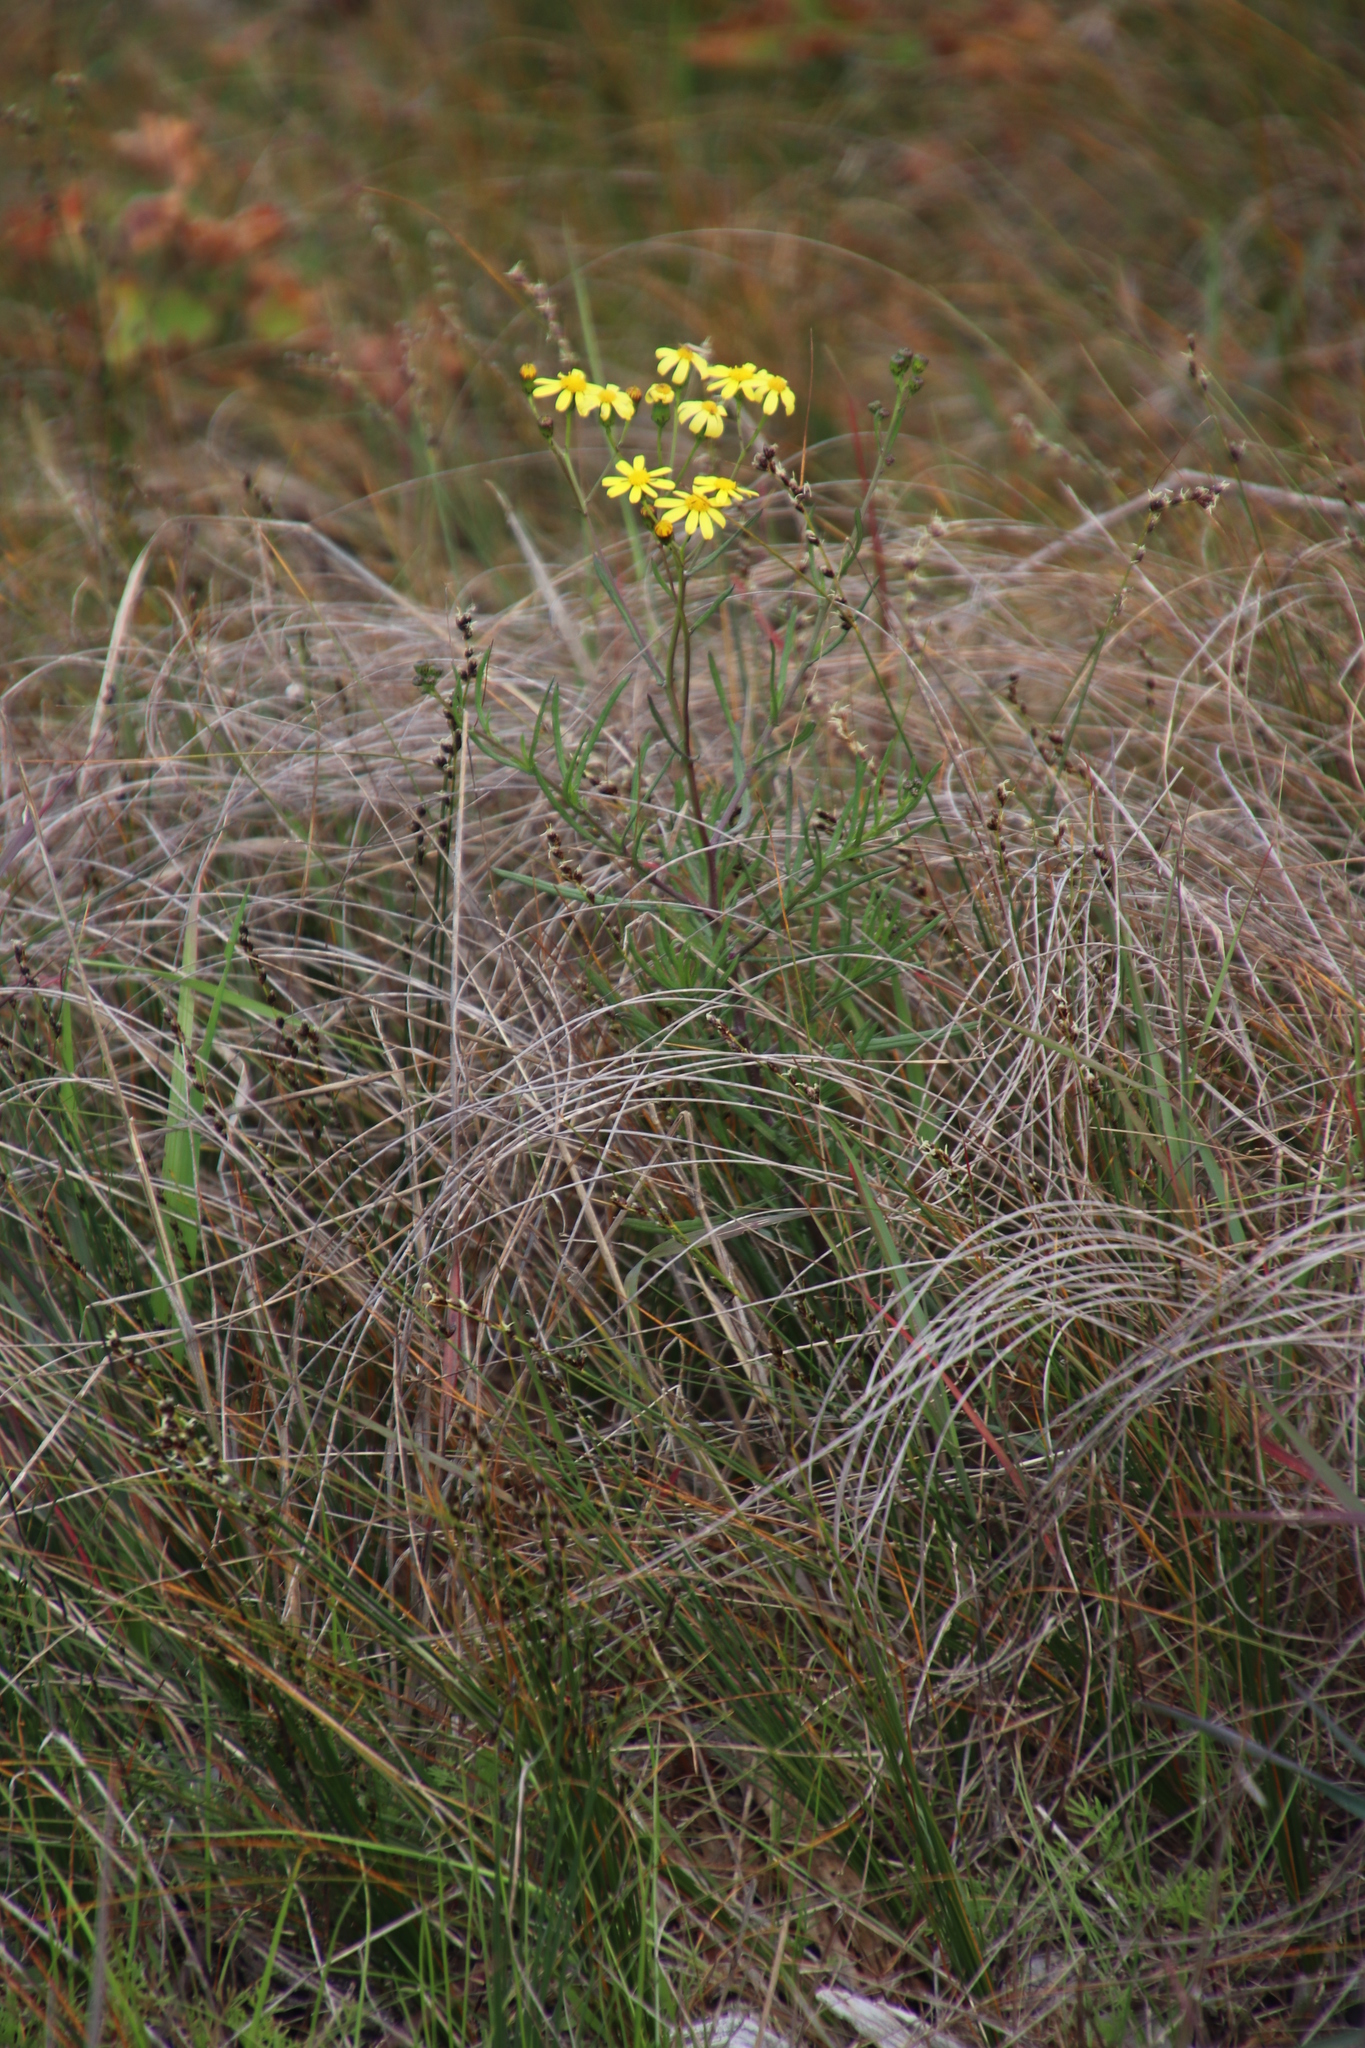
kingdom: Plantae
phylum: Tracheophyta
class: Magnoliopsida
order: Asterales
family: Asteraceae
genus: Senecio
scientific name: Senecio burchellii
